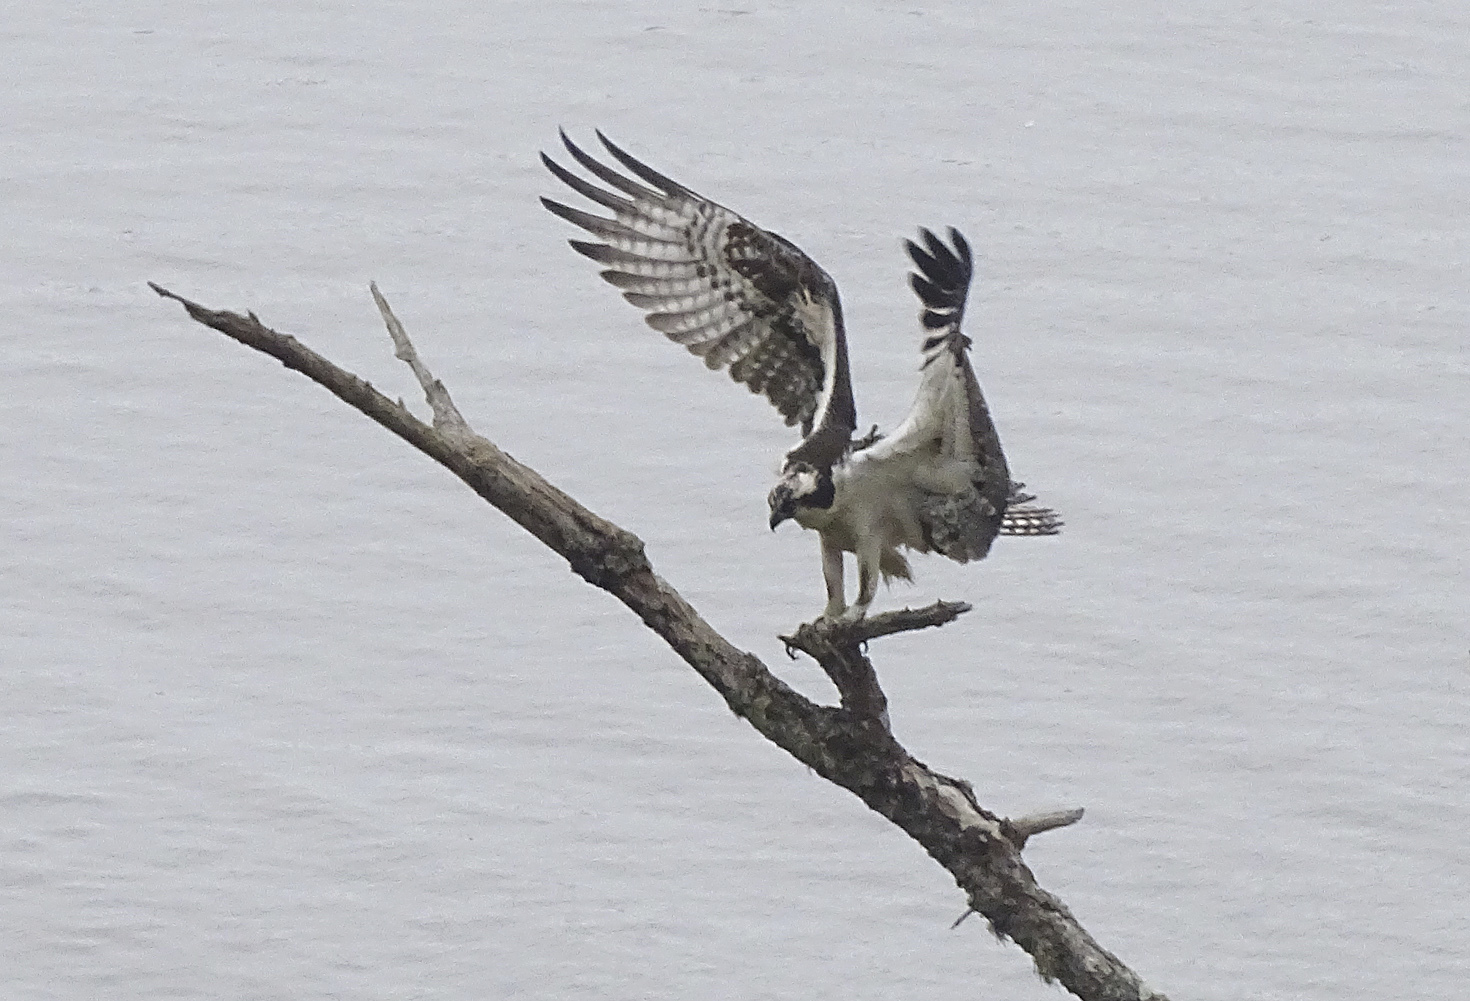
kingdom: Animalia
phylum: Chordata
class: Aves
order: Accipitriformes
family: Pandionidae
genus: Pandion
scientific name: Pandion haliaetus
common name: Osprey
